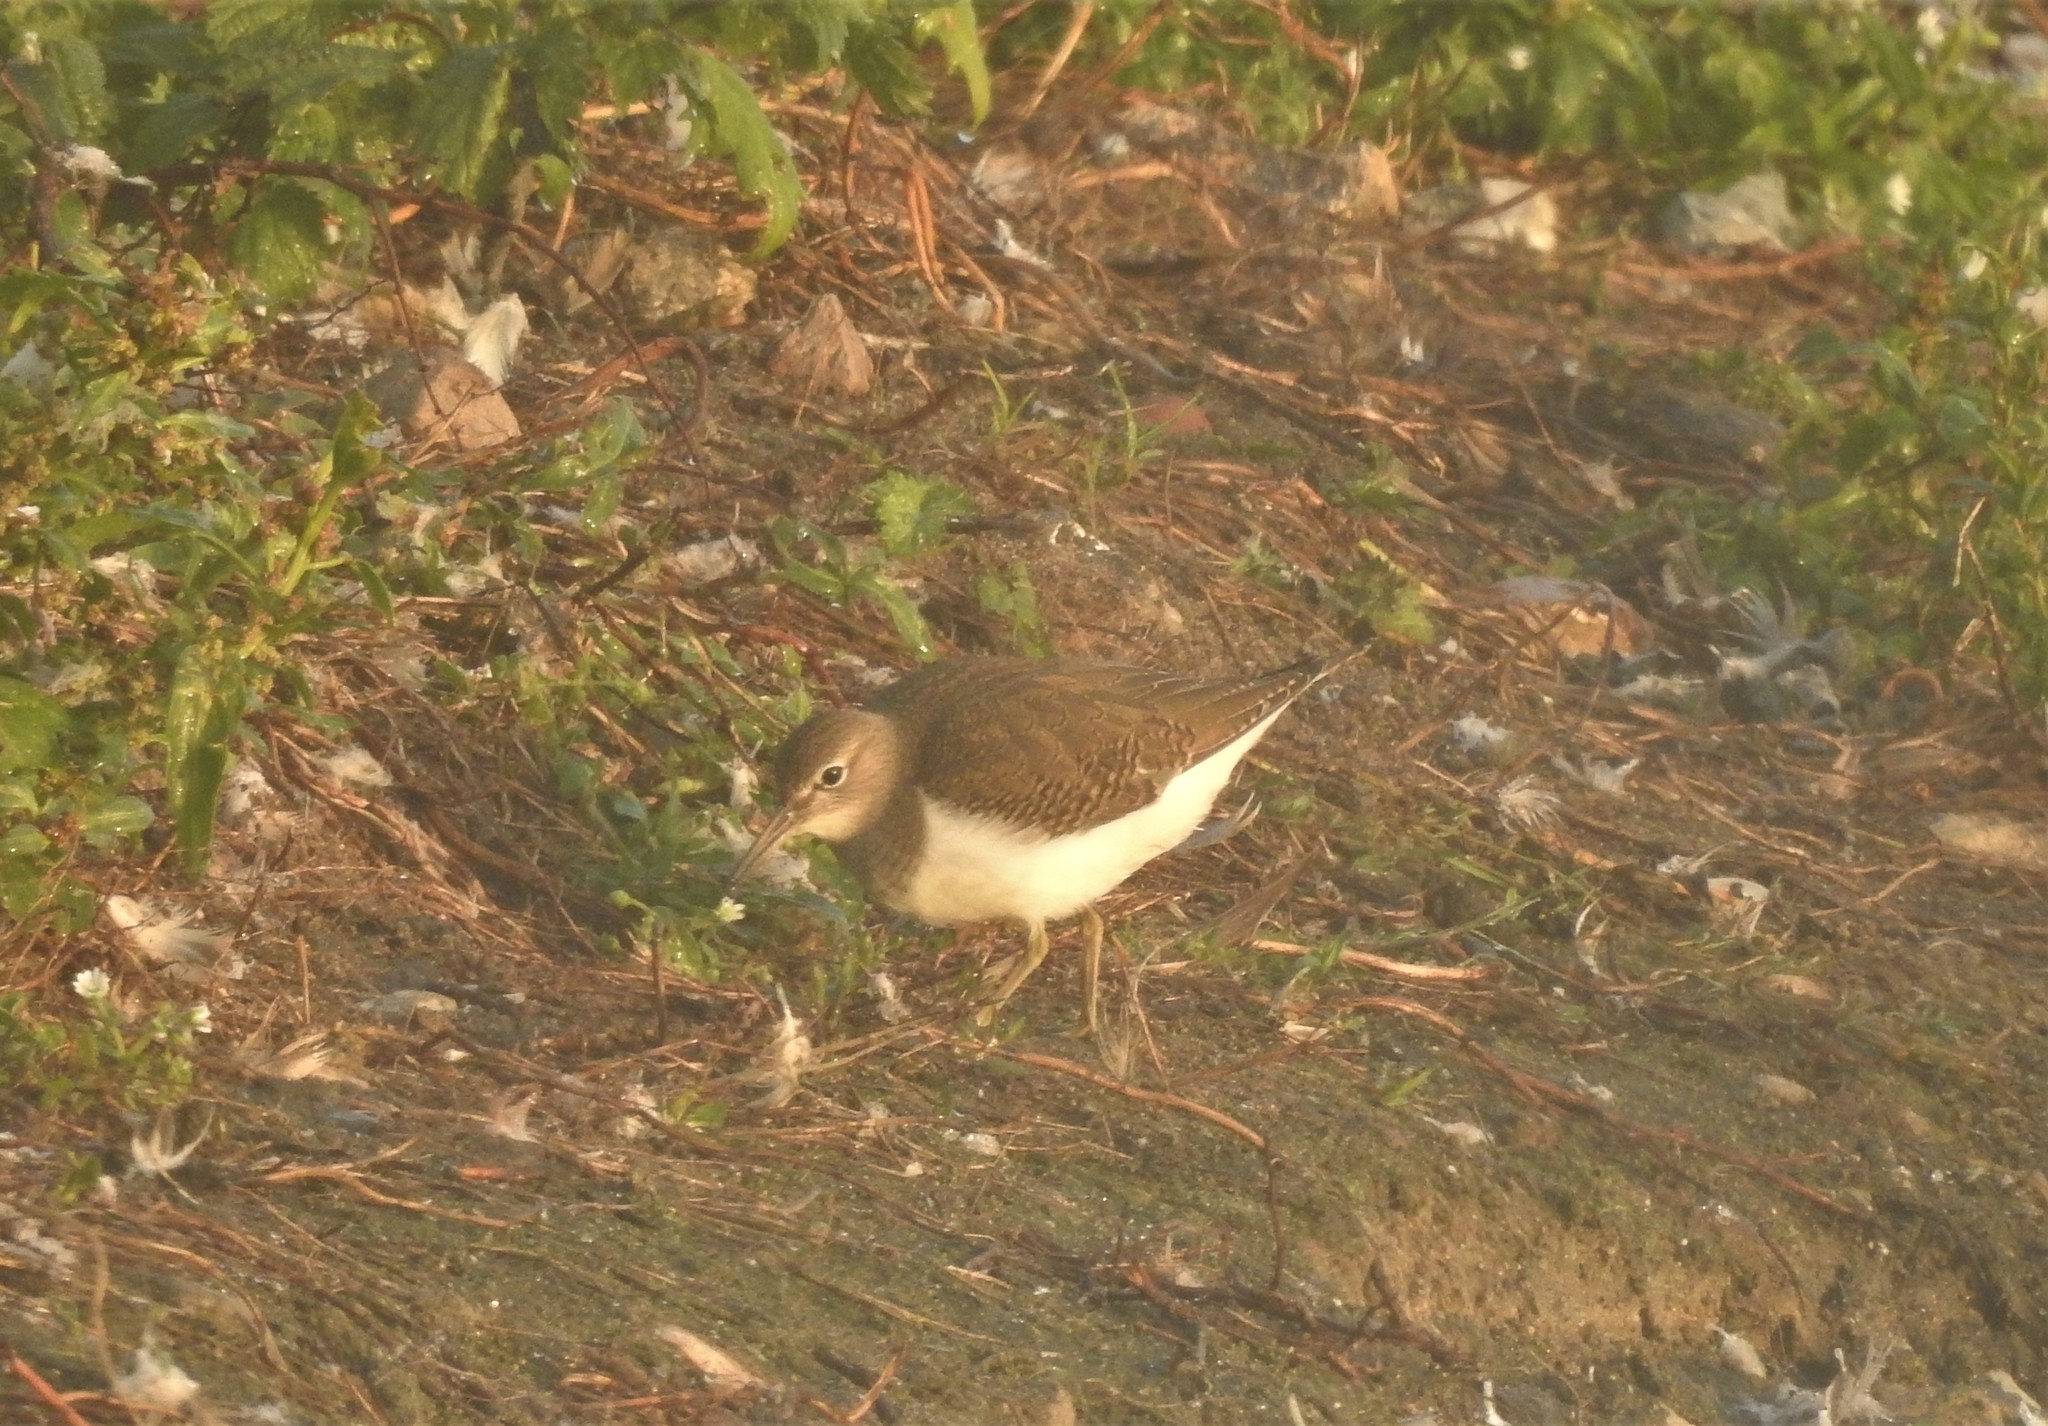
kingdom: Animalia
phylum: Chordata
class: Aves
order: Charadriiformes
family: Scolopacidae
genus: Actitis
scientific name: Actitis hypoleucos
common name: Common sandpiper
